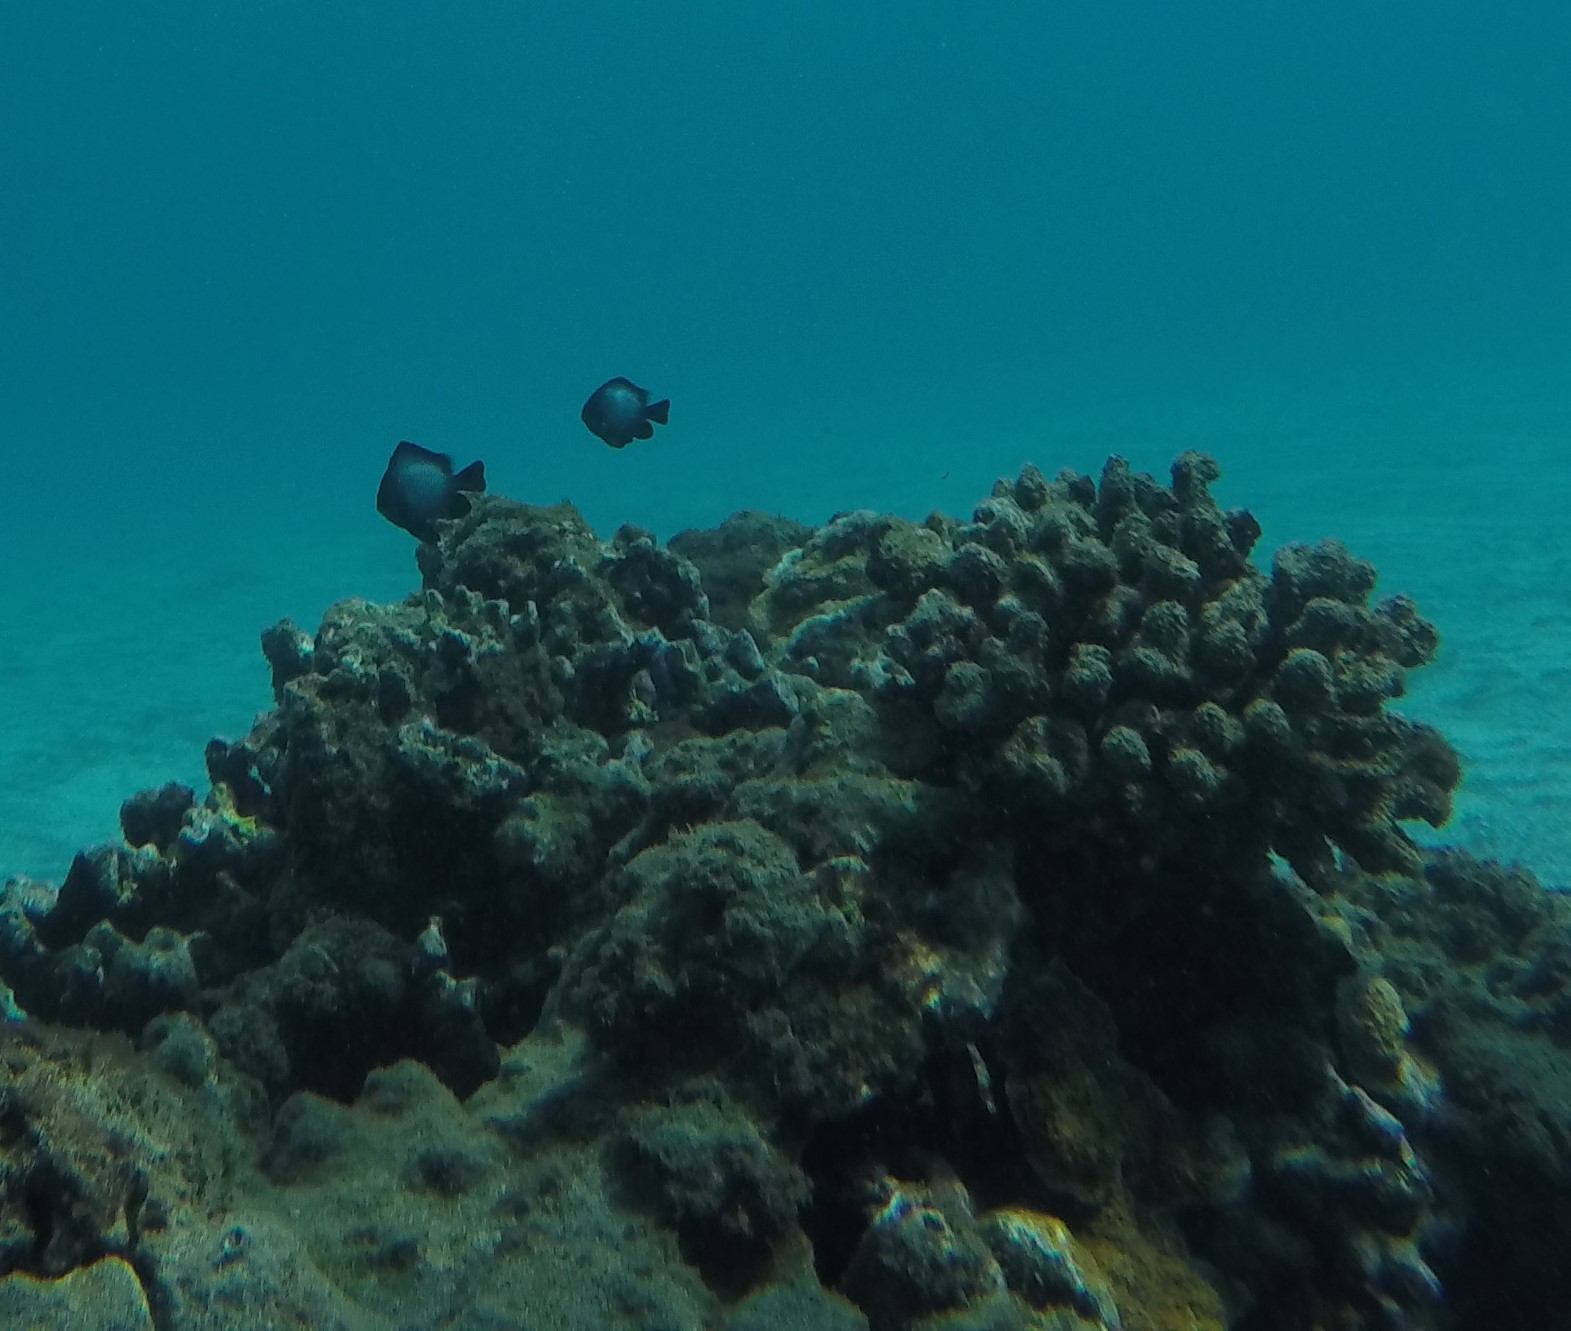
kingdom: Animalia
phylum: Chordata
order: Perciformes
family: Pomacentridae
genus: Dascyllus
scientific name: Dascyllus albisella
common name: Hawaiian dascyllus
